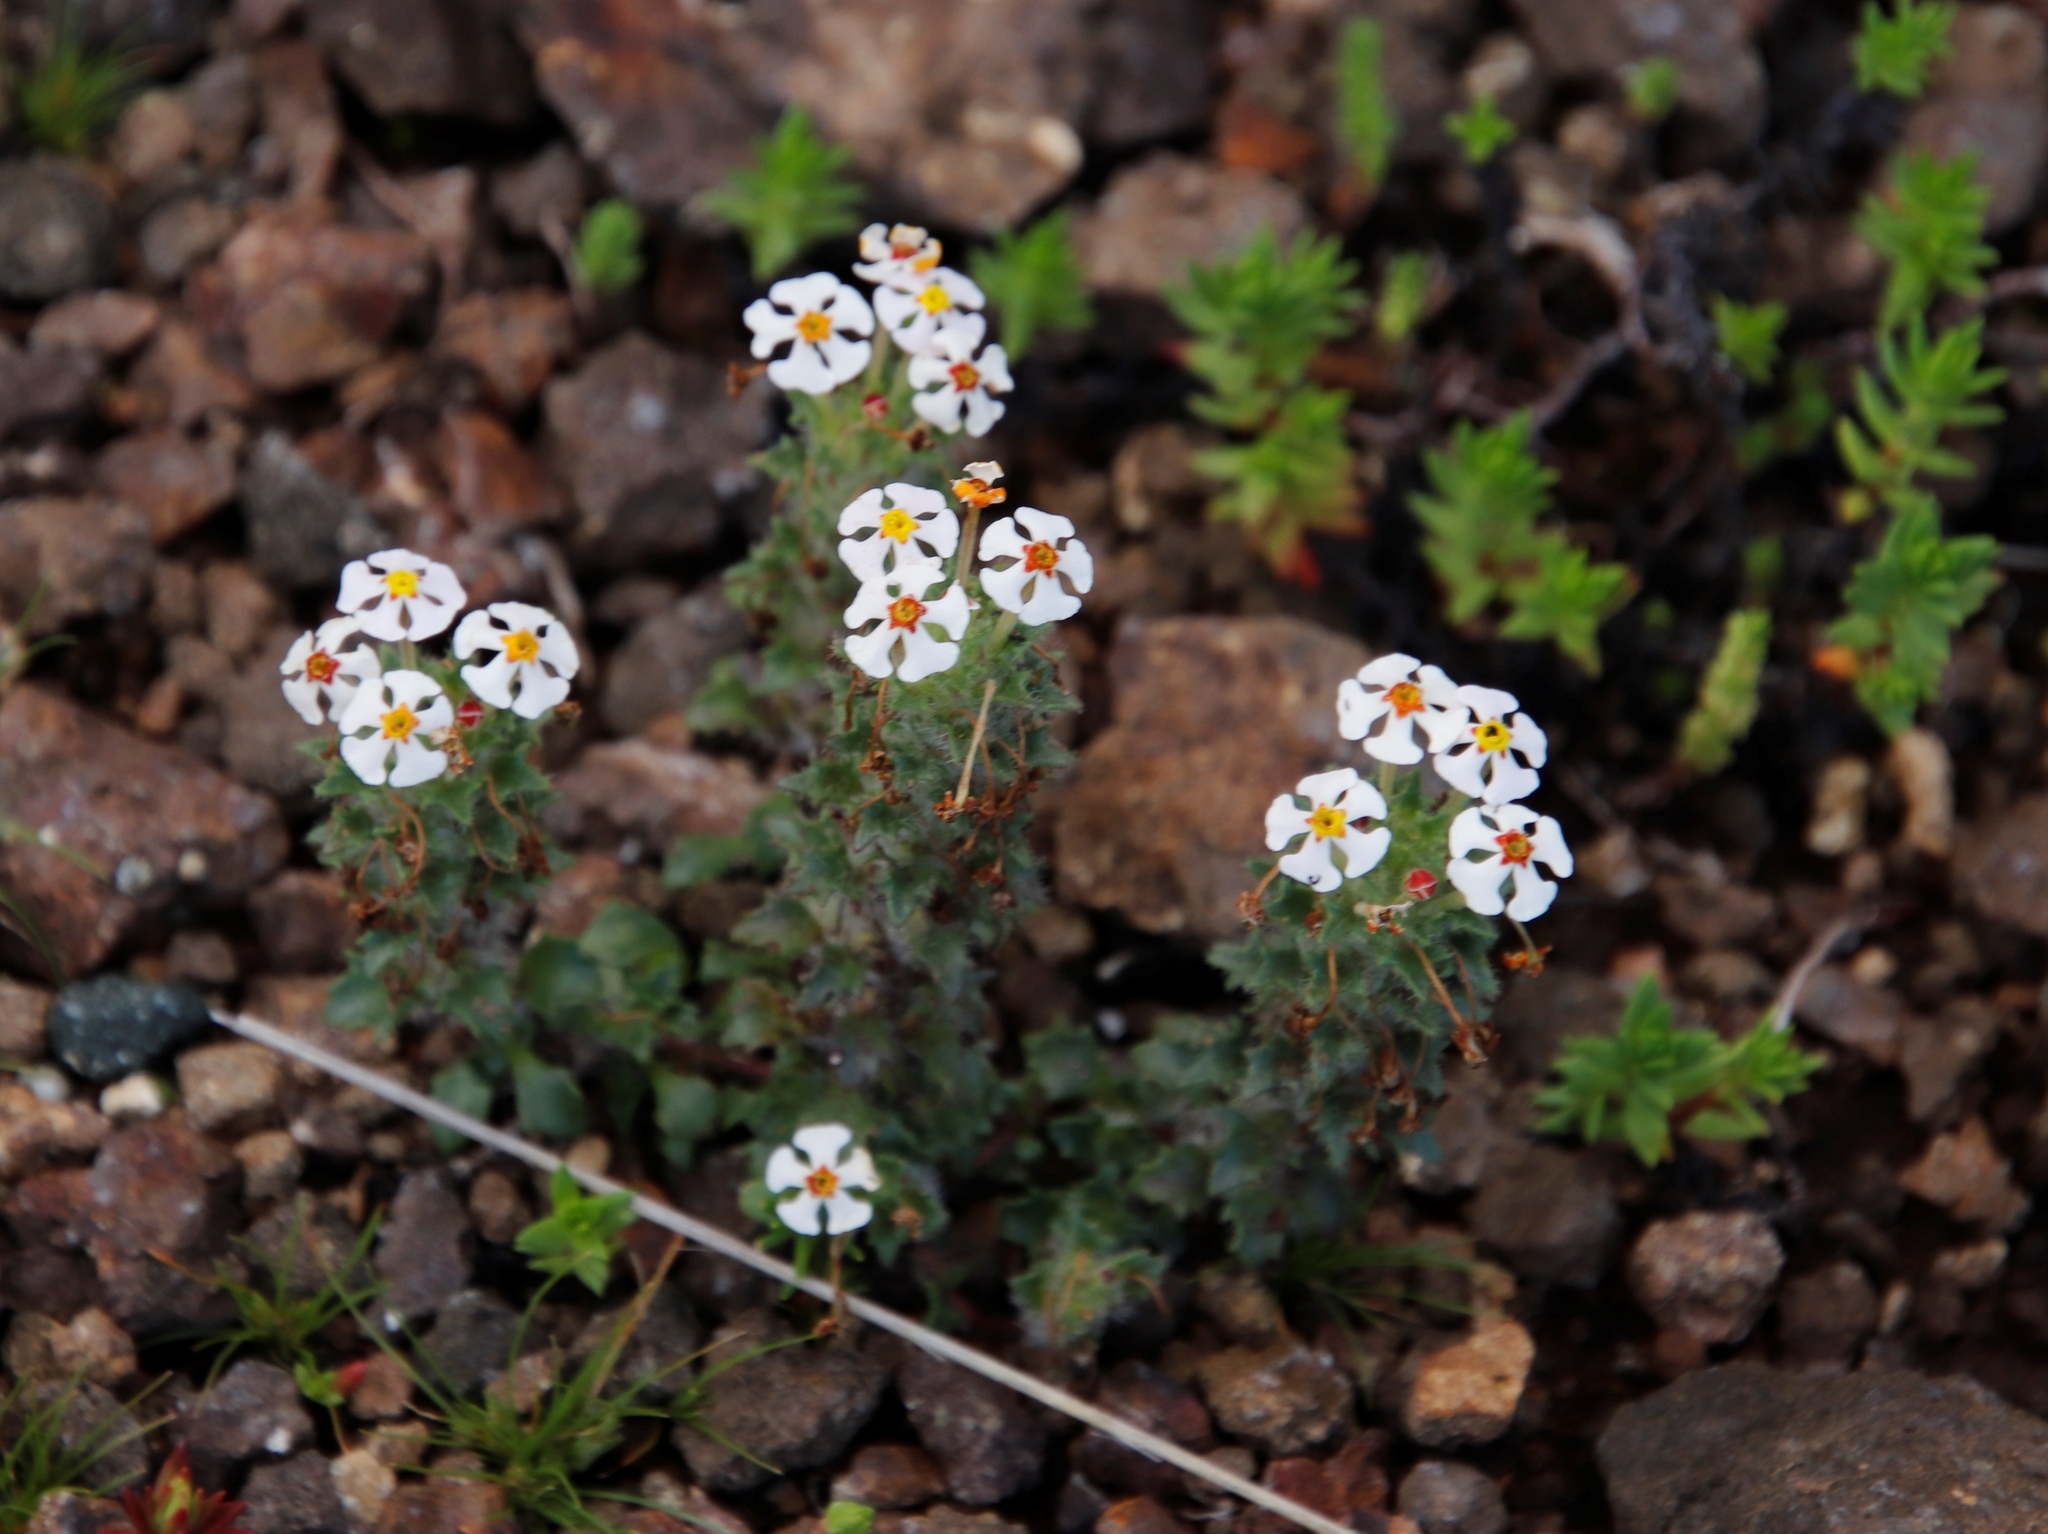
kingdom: Plantae
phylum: Tracheophyta
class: Magnoliopsida
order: Lamiales
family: Scrophulariaceae
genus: Zaluzianskya
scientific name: Zaluzianskya crocea
